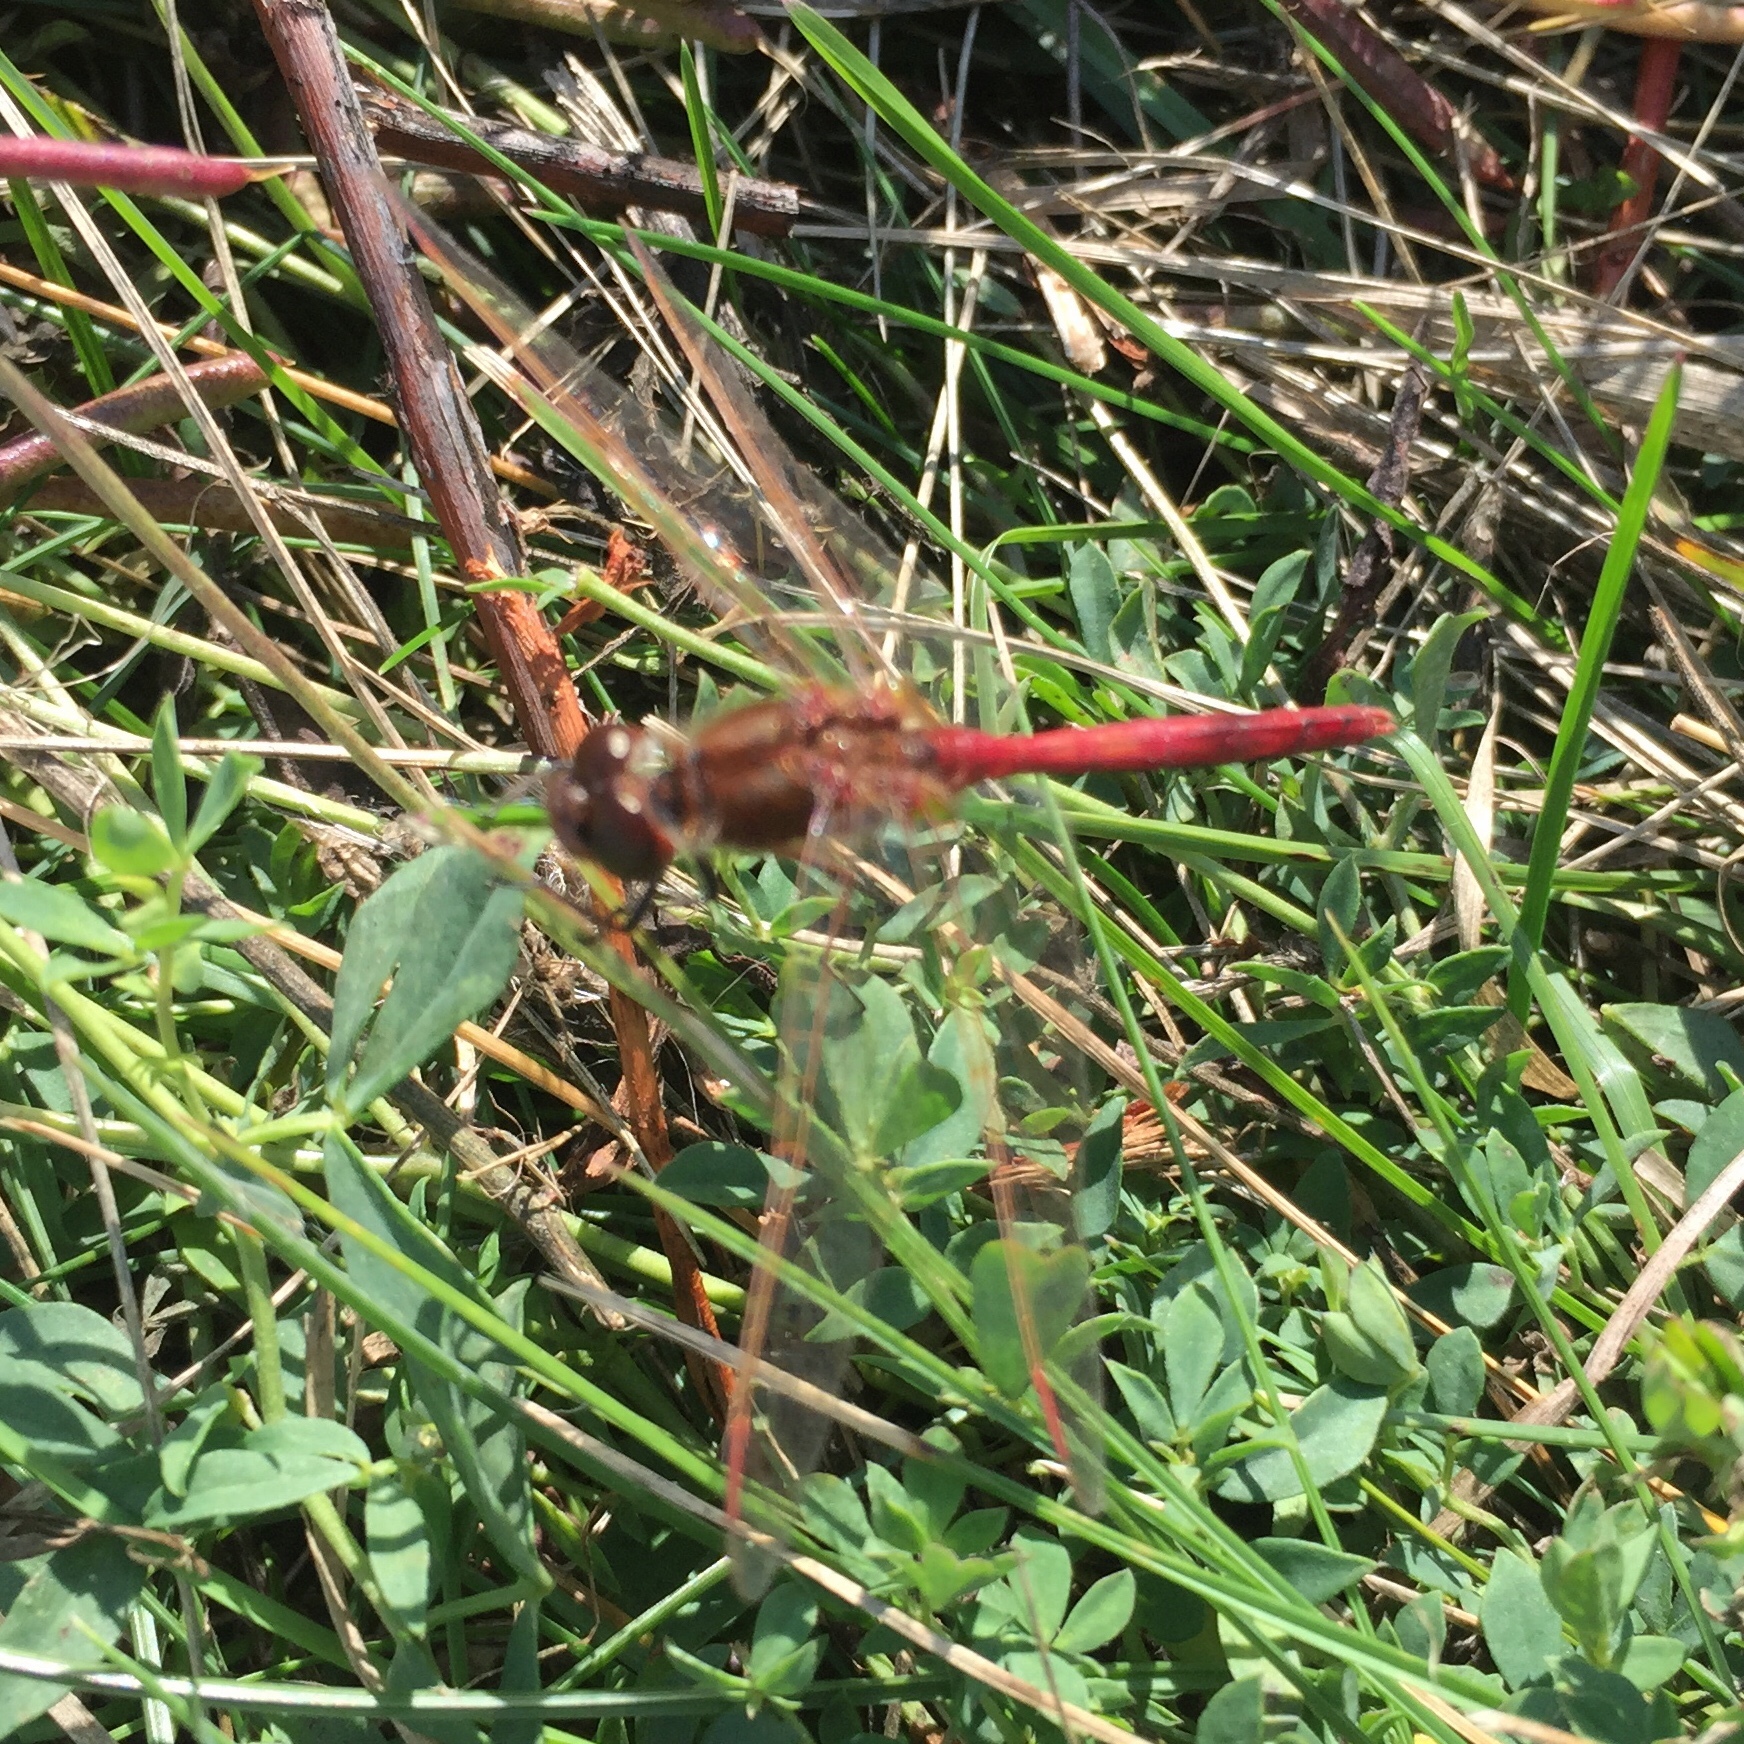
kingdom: Animalia
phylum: Arthropoda
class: Insecta
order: Odonata
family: Libellulidae
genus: Sympetrum
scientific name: Sympetrum
